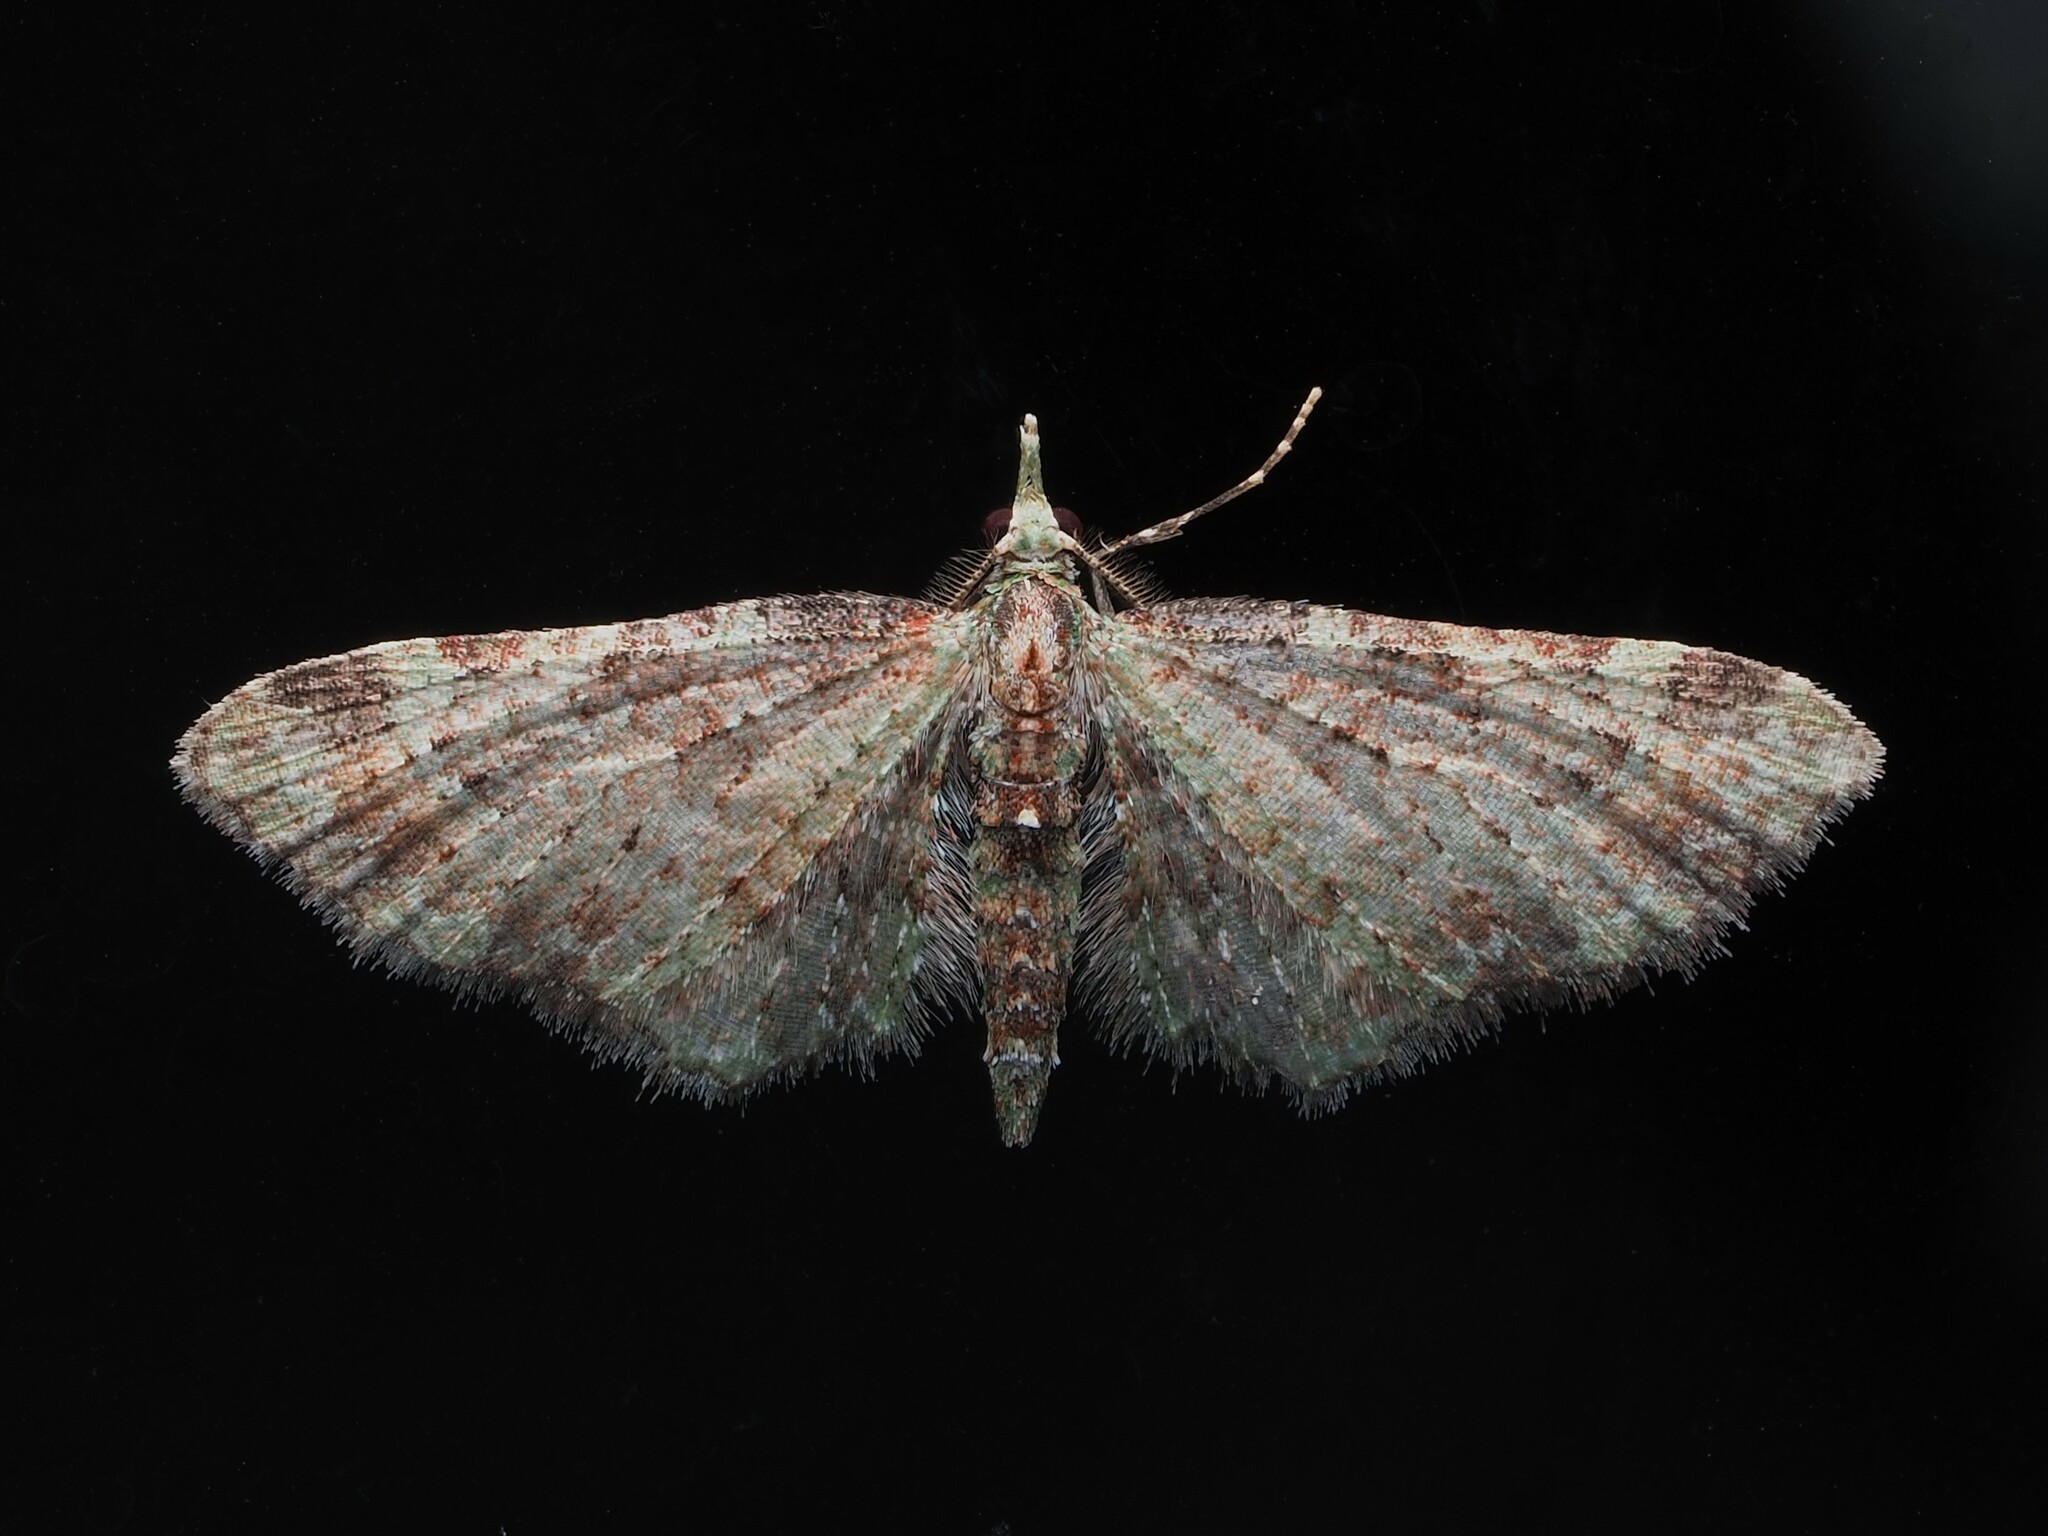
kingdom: Animalia
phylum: Arthropoda
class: Insecta
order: Lepidoptera
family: Geometridae
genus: Pasiphila
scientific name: Pasiphila plinthina
